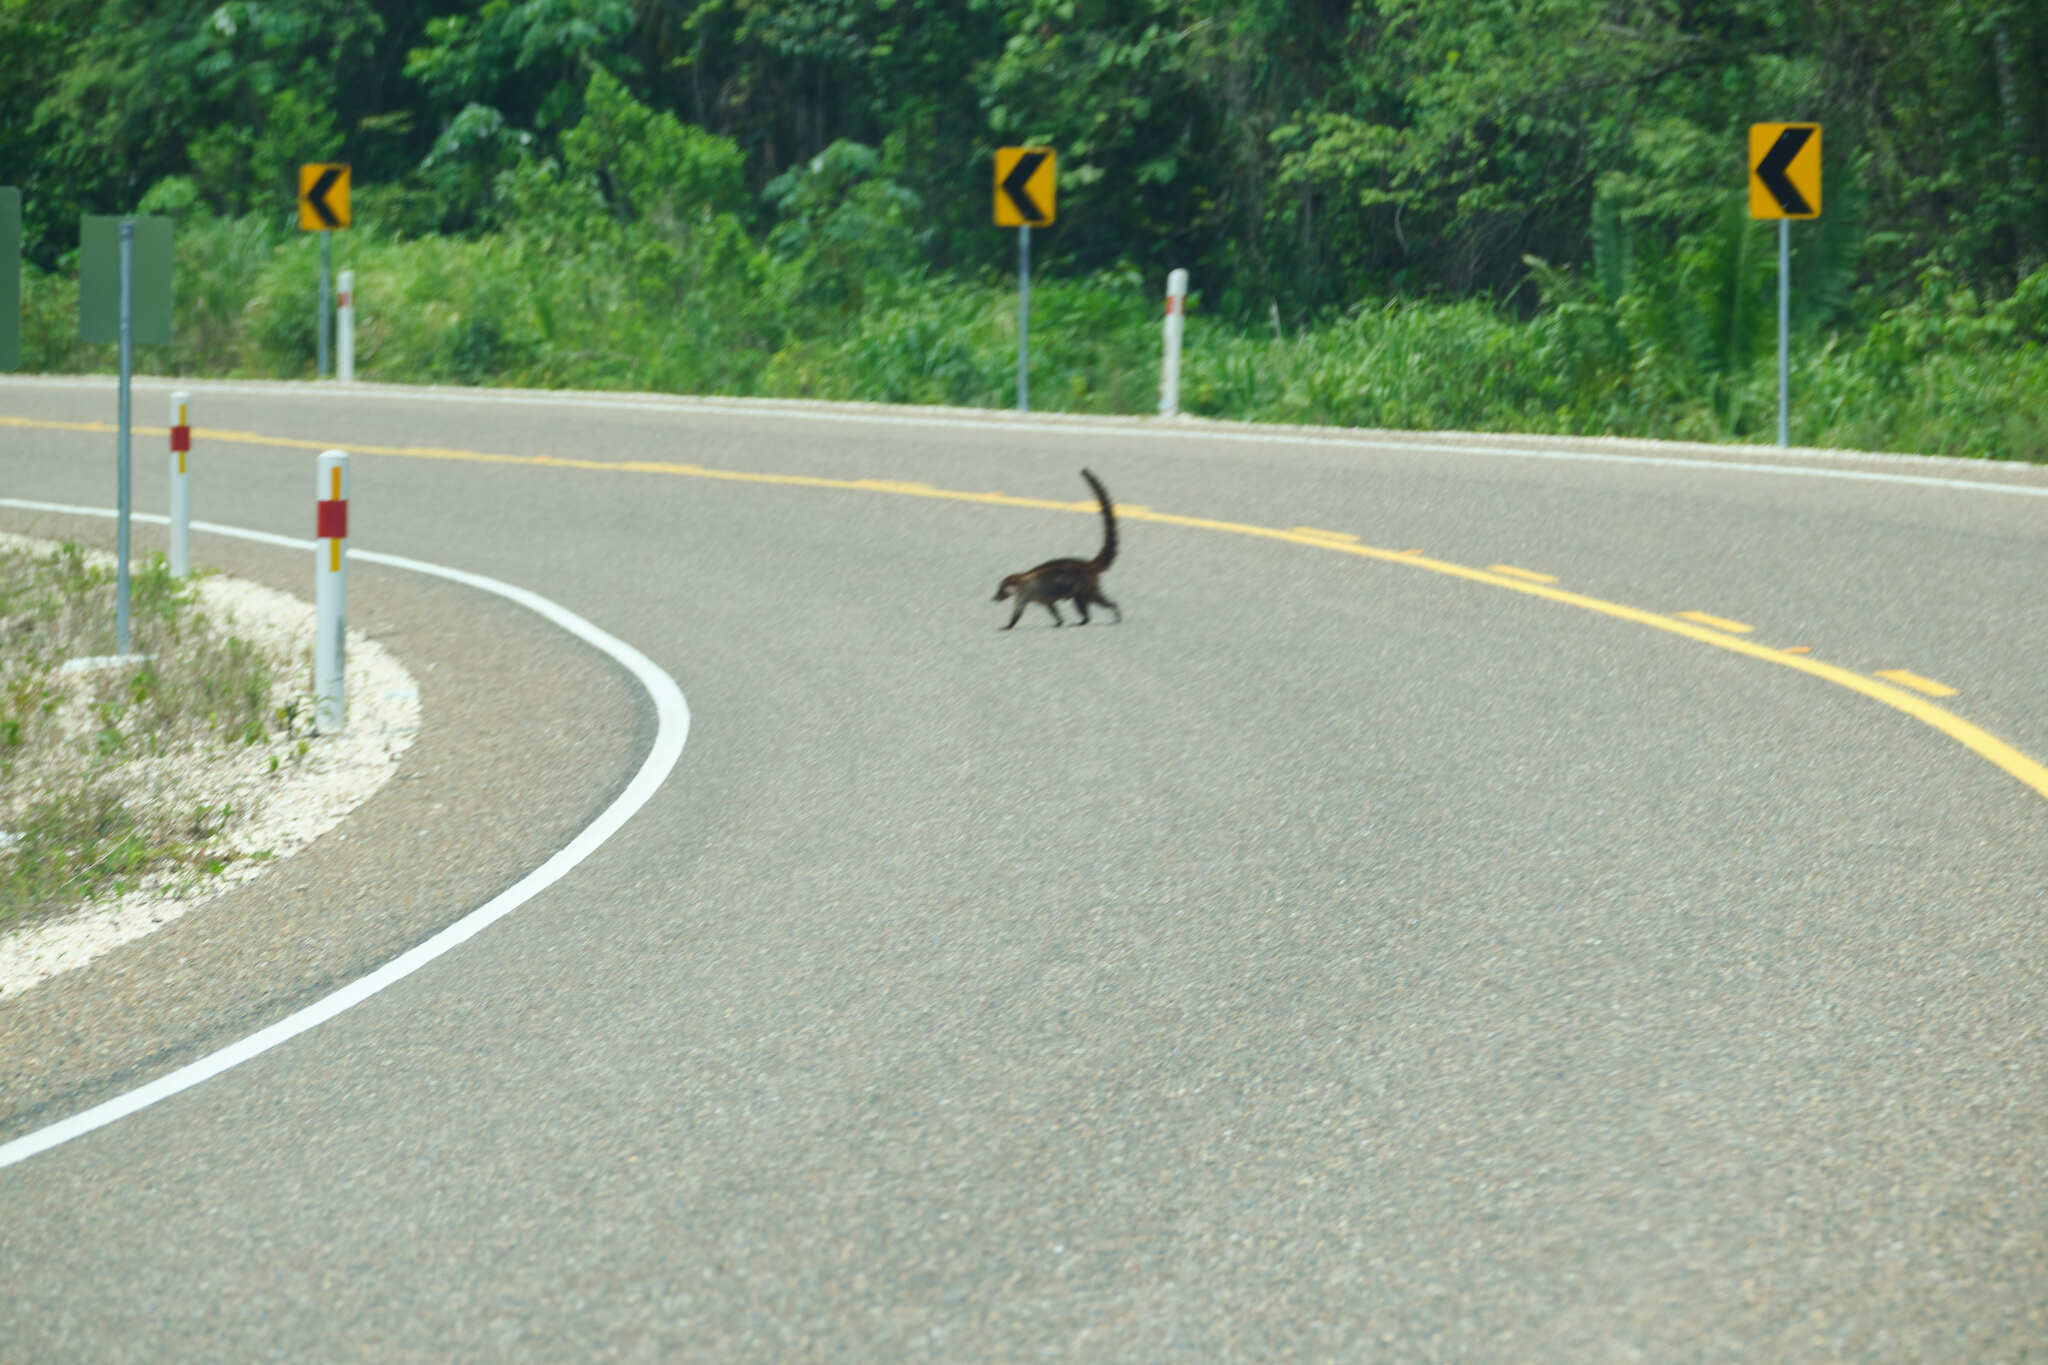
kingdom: Animalia
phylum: Chordata
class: Mammalia
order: Carnivora
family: Procyonidae
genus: Nasua
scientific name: Nasua narica
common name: White-nosed coati
